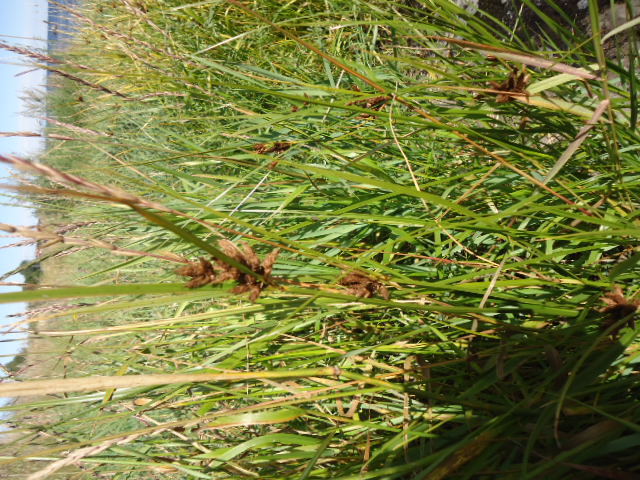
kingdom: Plantae
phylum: Tracheophyta
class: Liliopsida
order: Poales
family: Cyperaceae
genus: Bolboschoenus
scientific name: Bolboschoenus maritimus
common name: Sea club-rush
